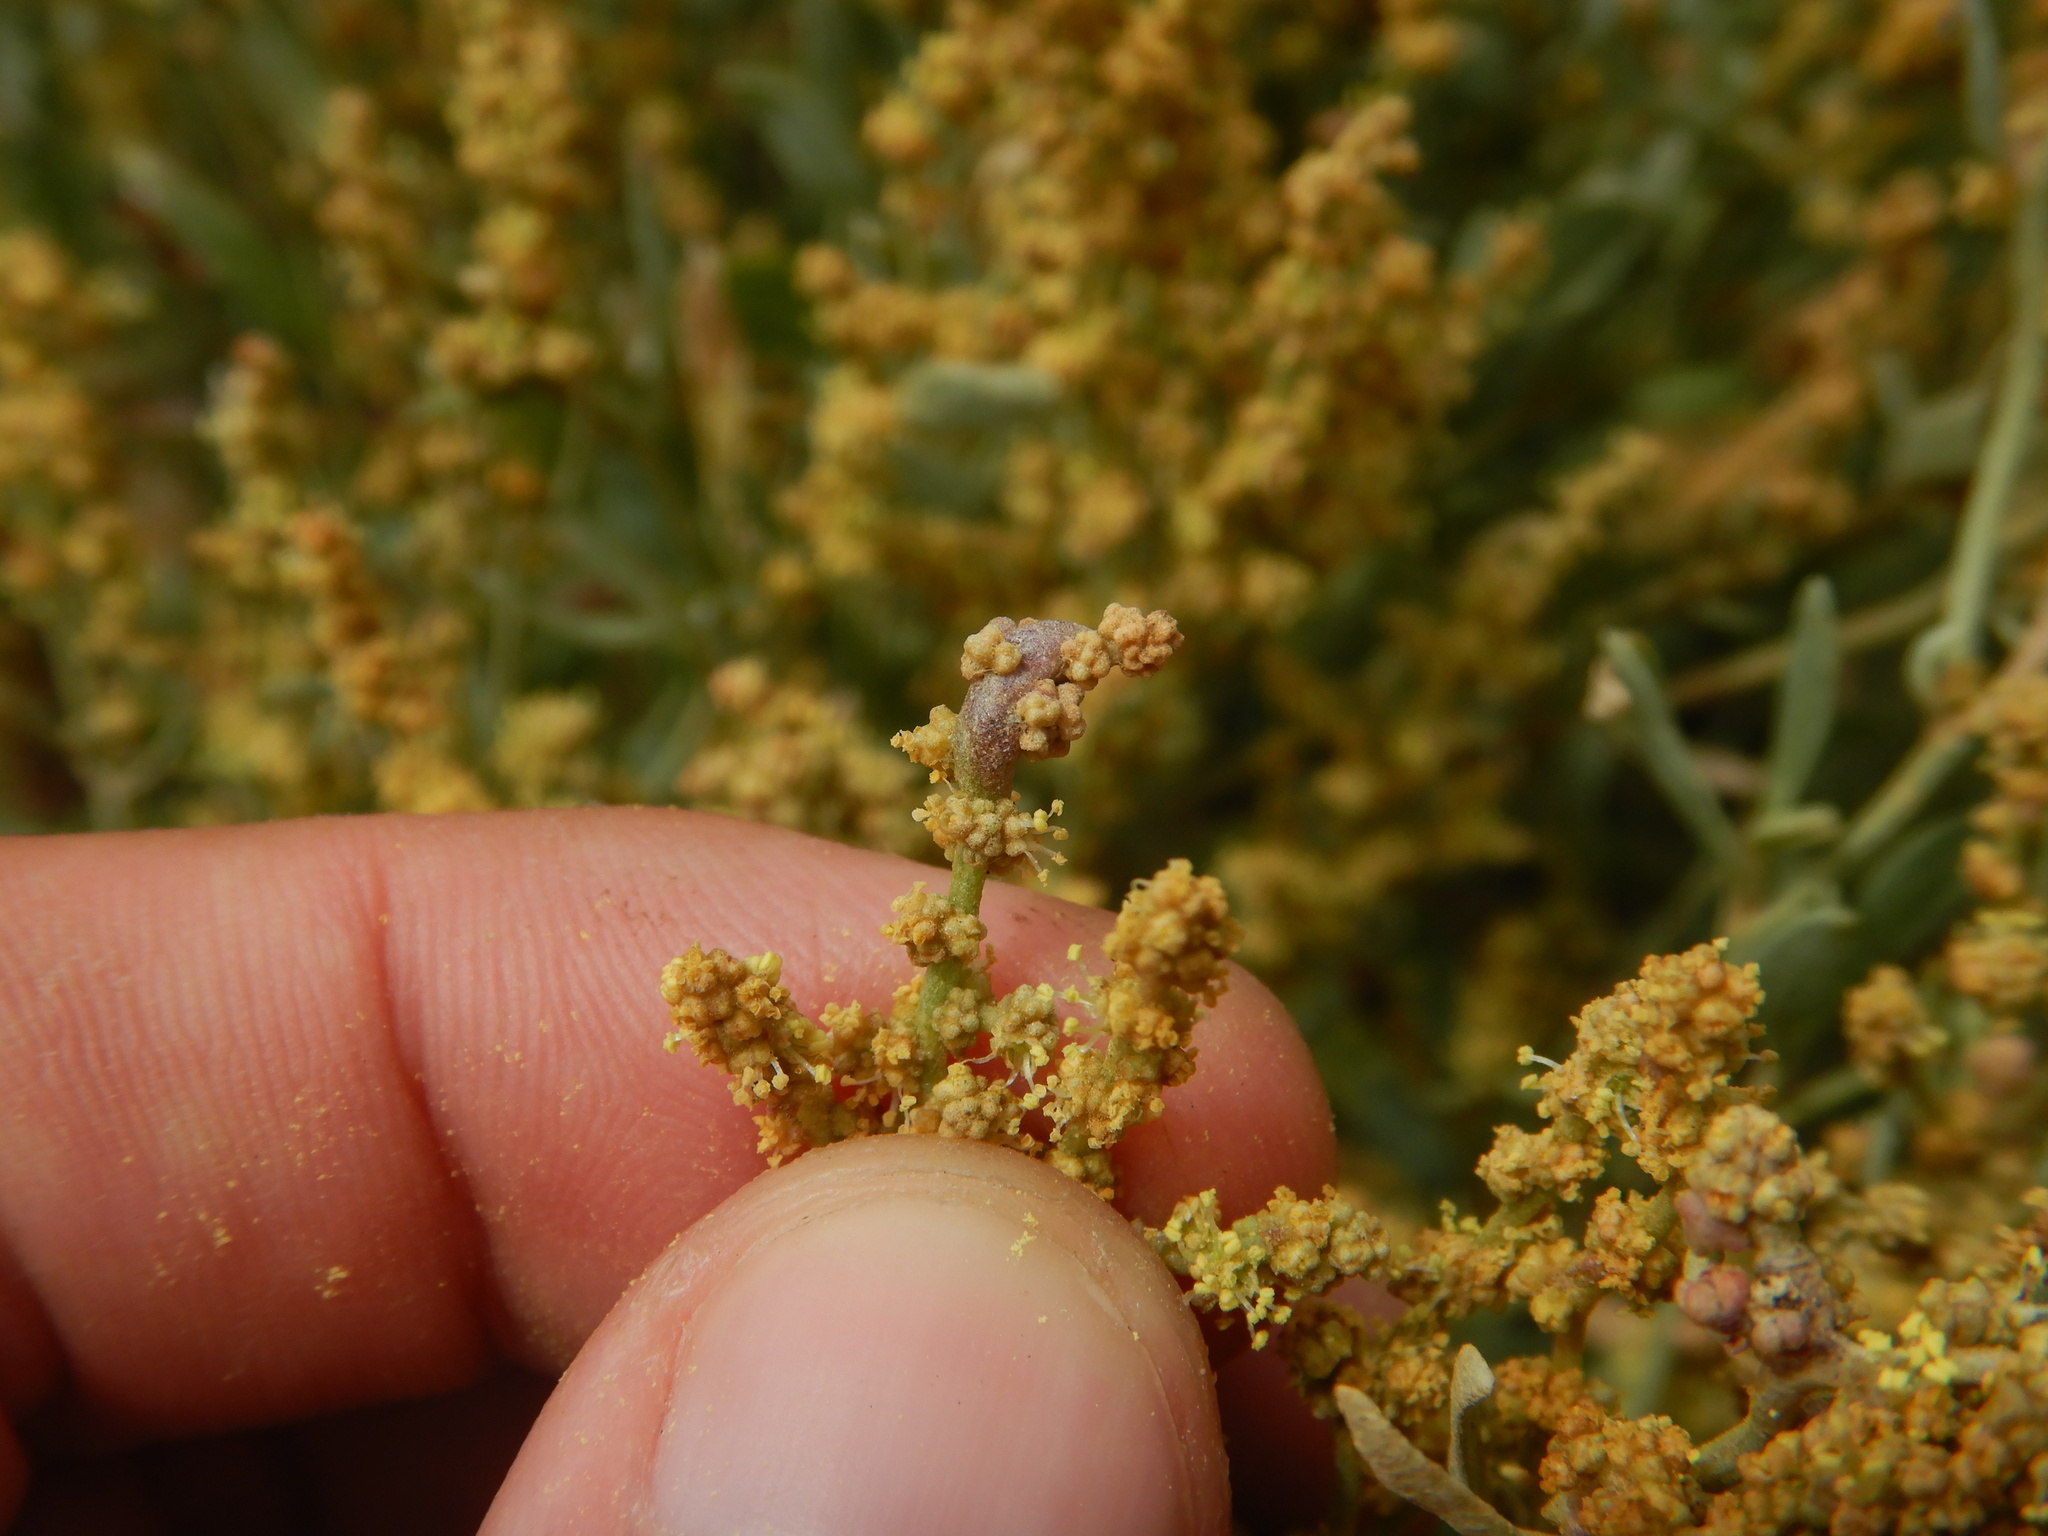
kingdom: Animalia
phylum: Arthropoda
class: Arachnida
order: Trombidiformes
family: Eriophyidae
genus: Eriophyes
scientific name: Eriophyes obiones
